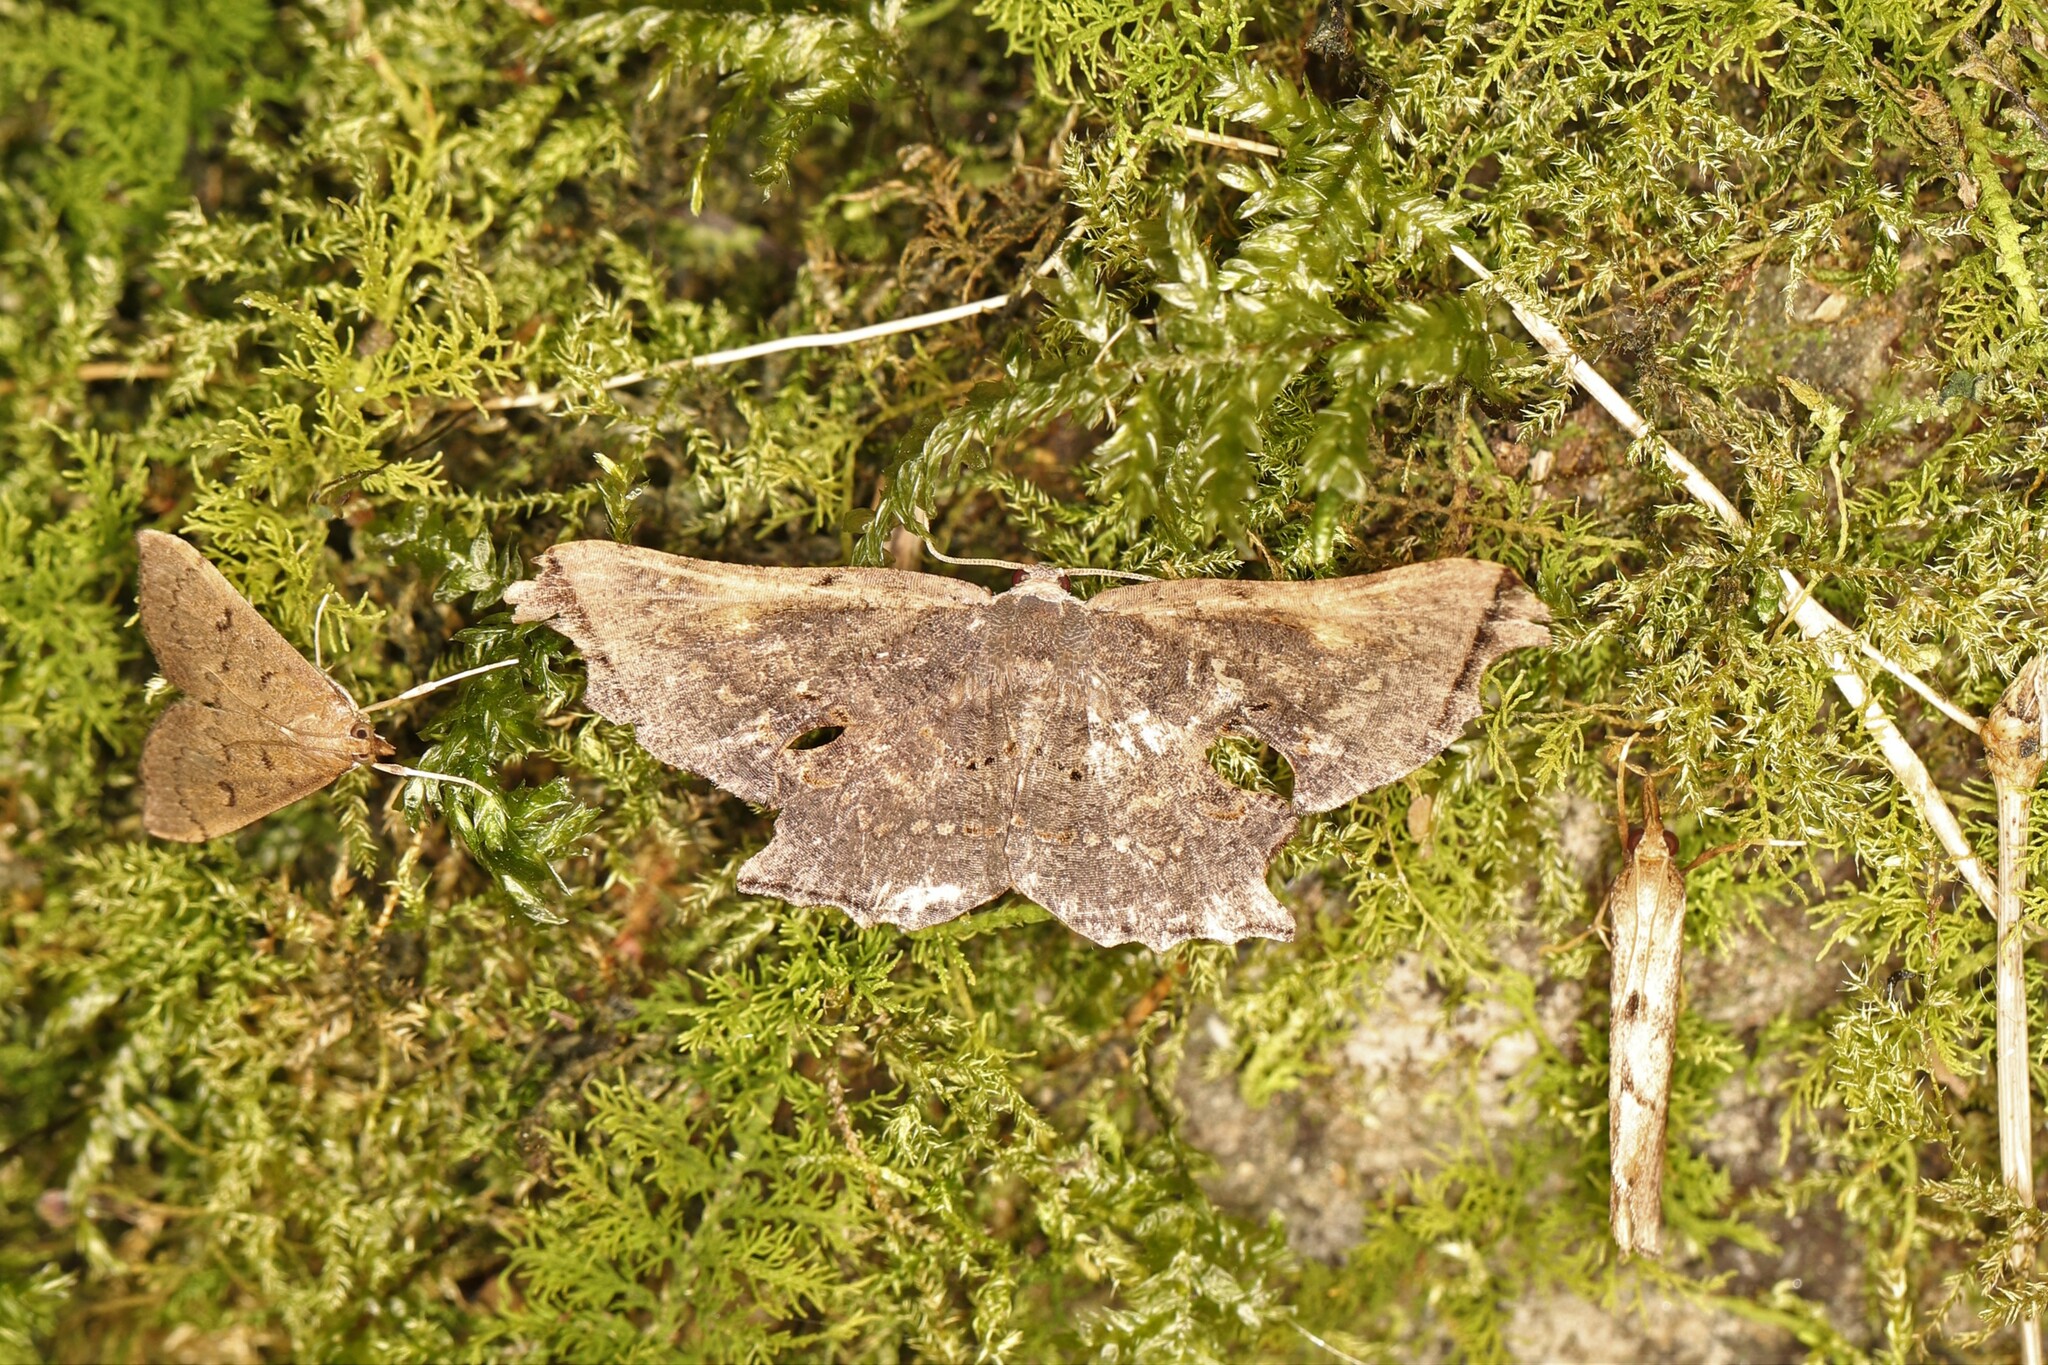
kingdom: Animalia
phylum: Arthropoda
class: Insecta
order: Lepidoptera
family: Uraniidae
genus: Crypsicoela
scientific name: Crypsicoela subocellata
